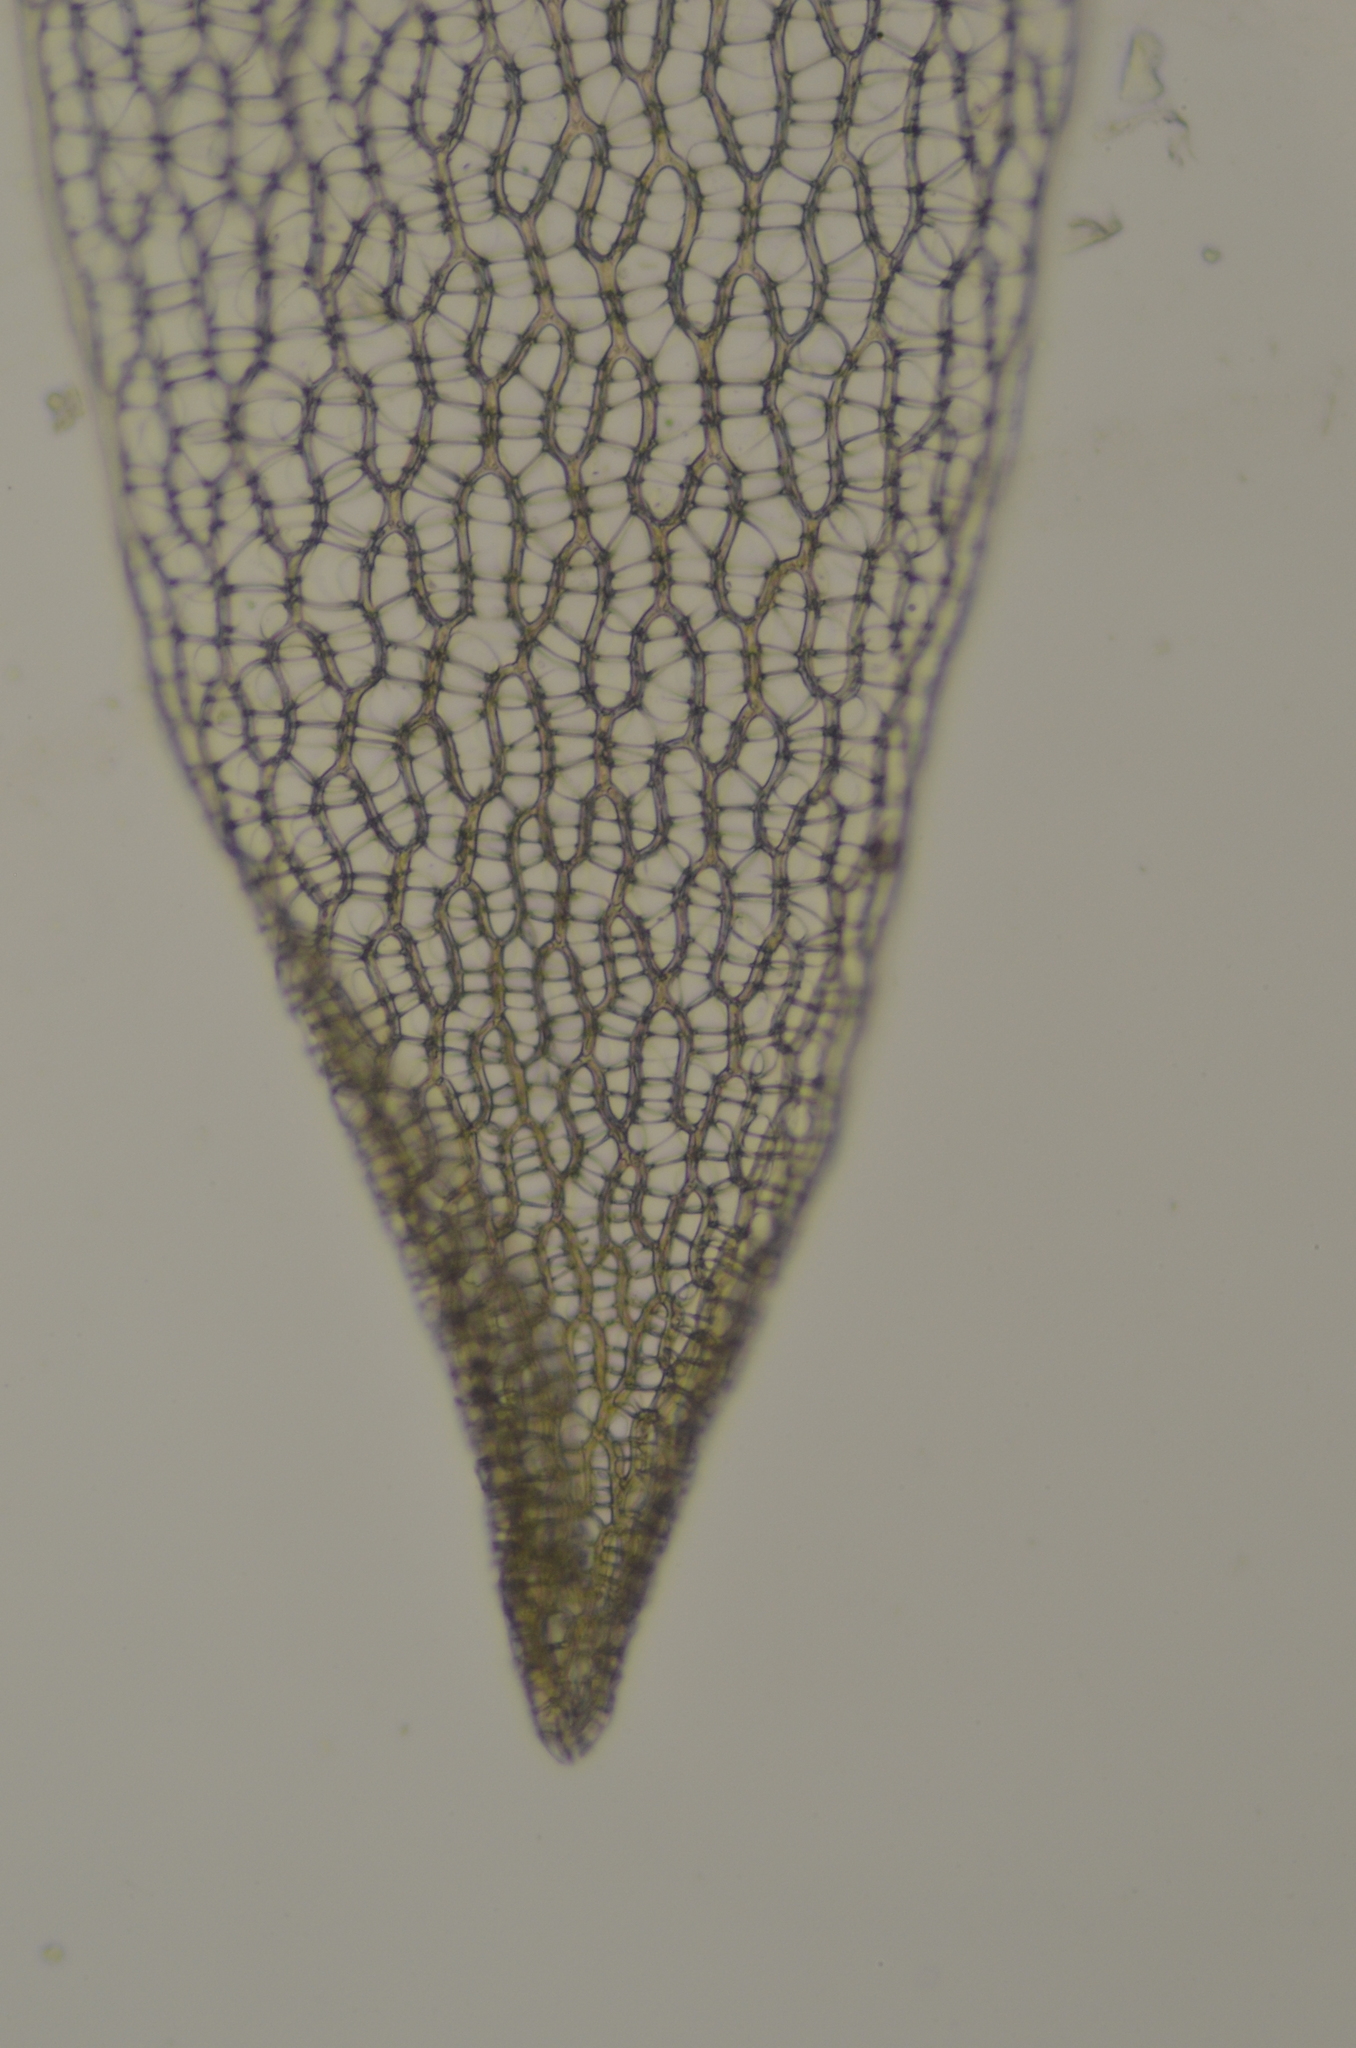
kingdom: Plantae
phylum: Bryophyta
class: Sphagnopsida
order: Sphagnales
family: Sphagnaceae
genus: Sphagnum
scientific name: Sphagnum fuscum
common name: Brown peat moss
